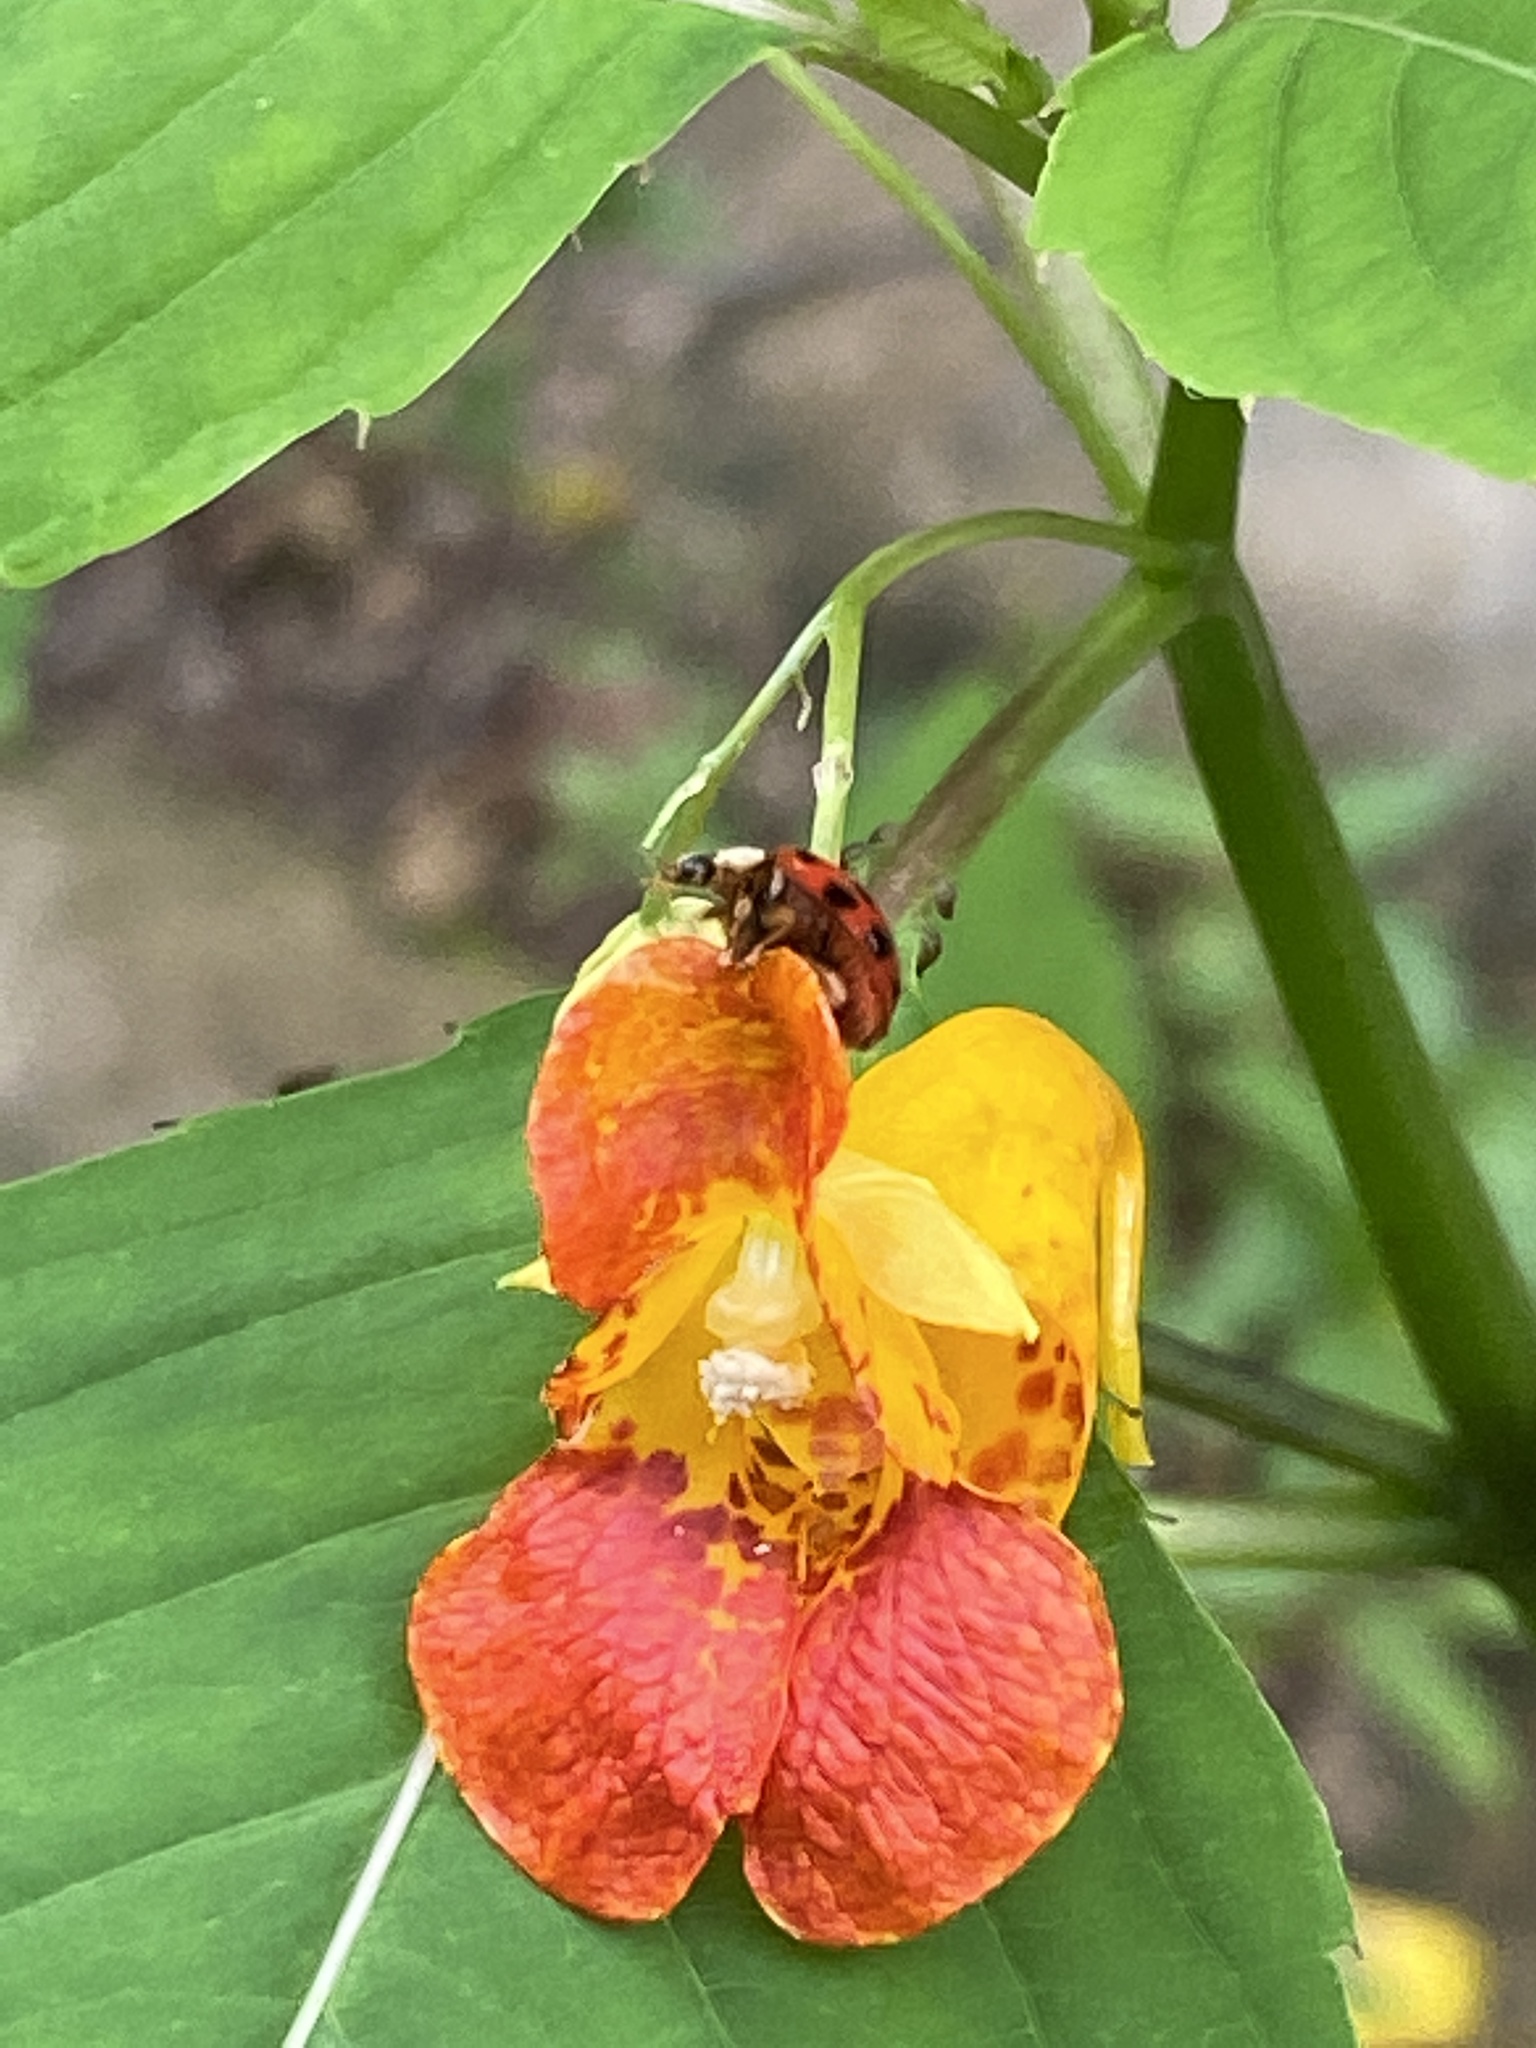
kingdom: Plantae
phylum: Tracheophyta
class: Magnoliopsida
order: Ericales
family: Balsaminaceae
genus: Impatiens
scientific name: Impatiens capensis
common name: Orange balsam
